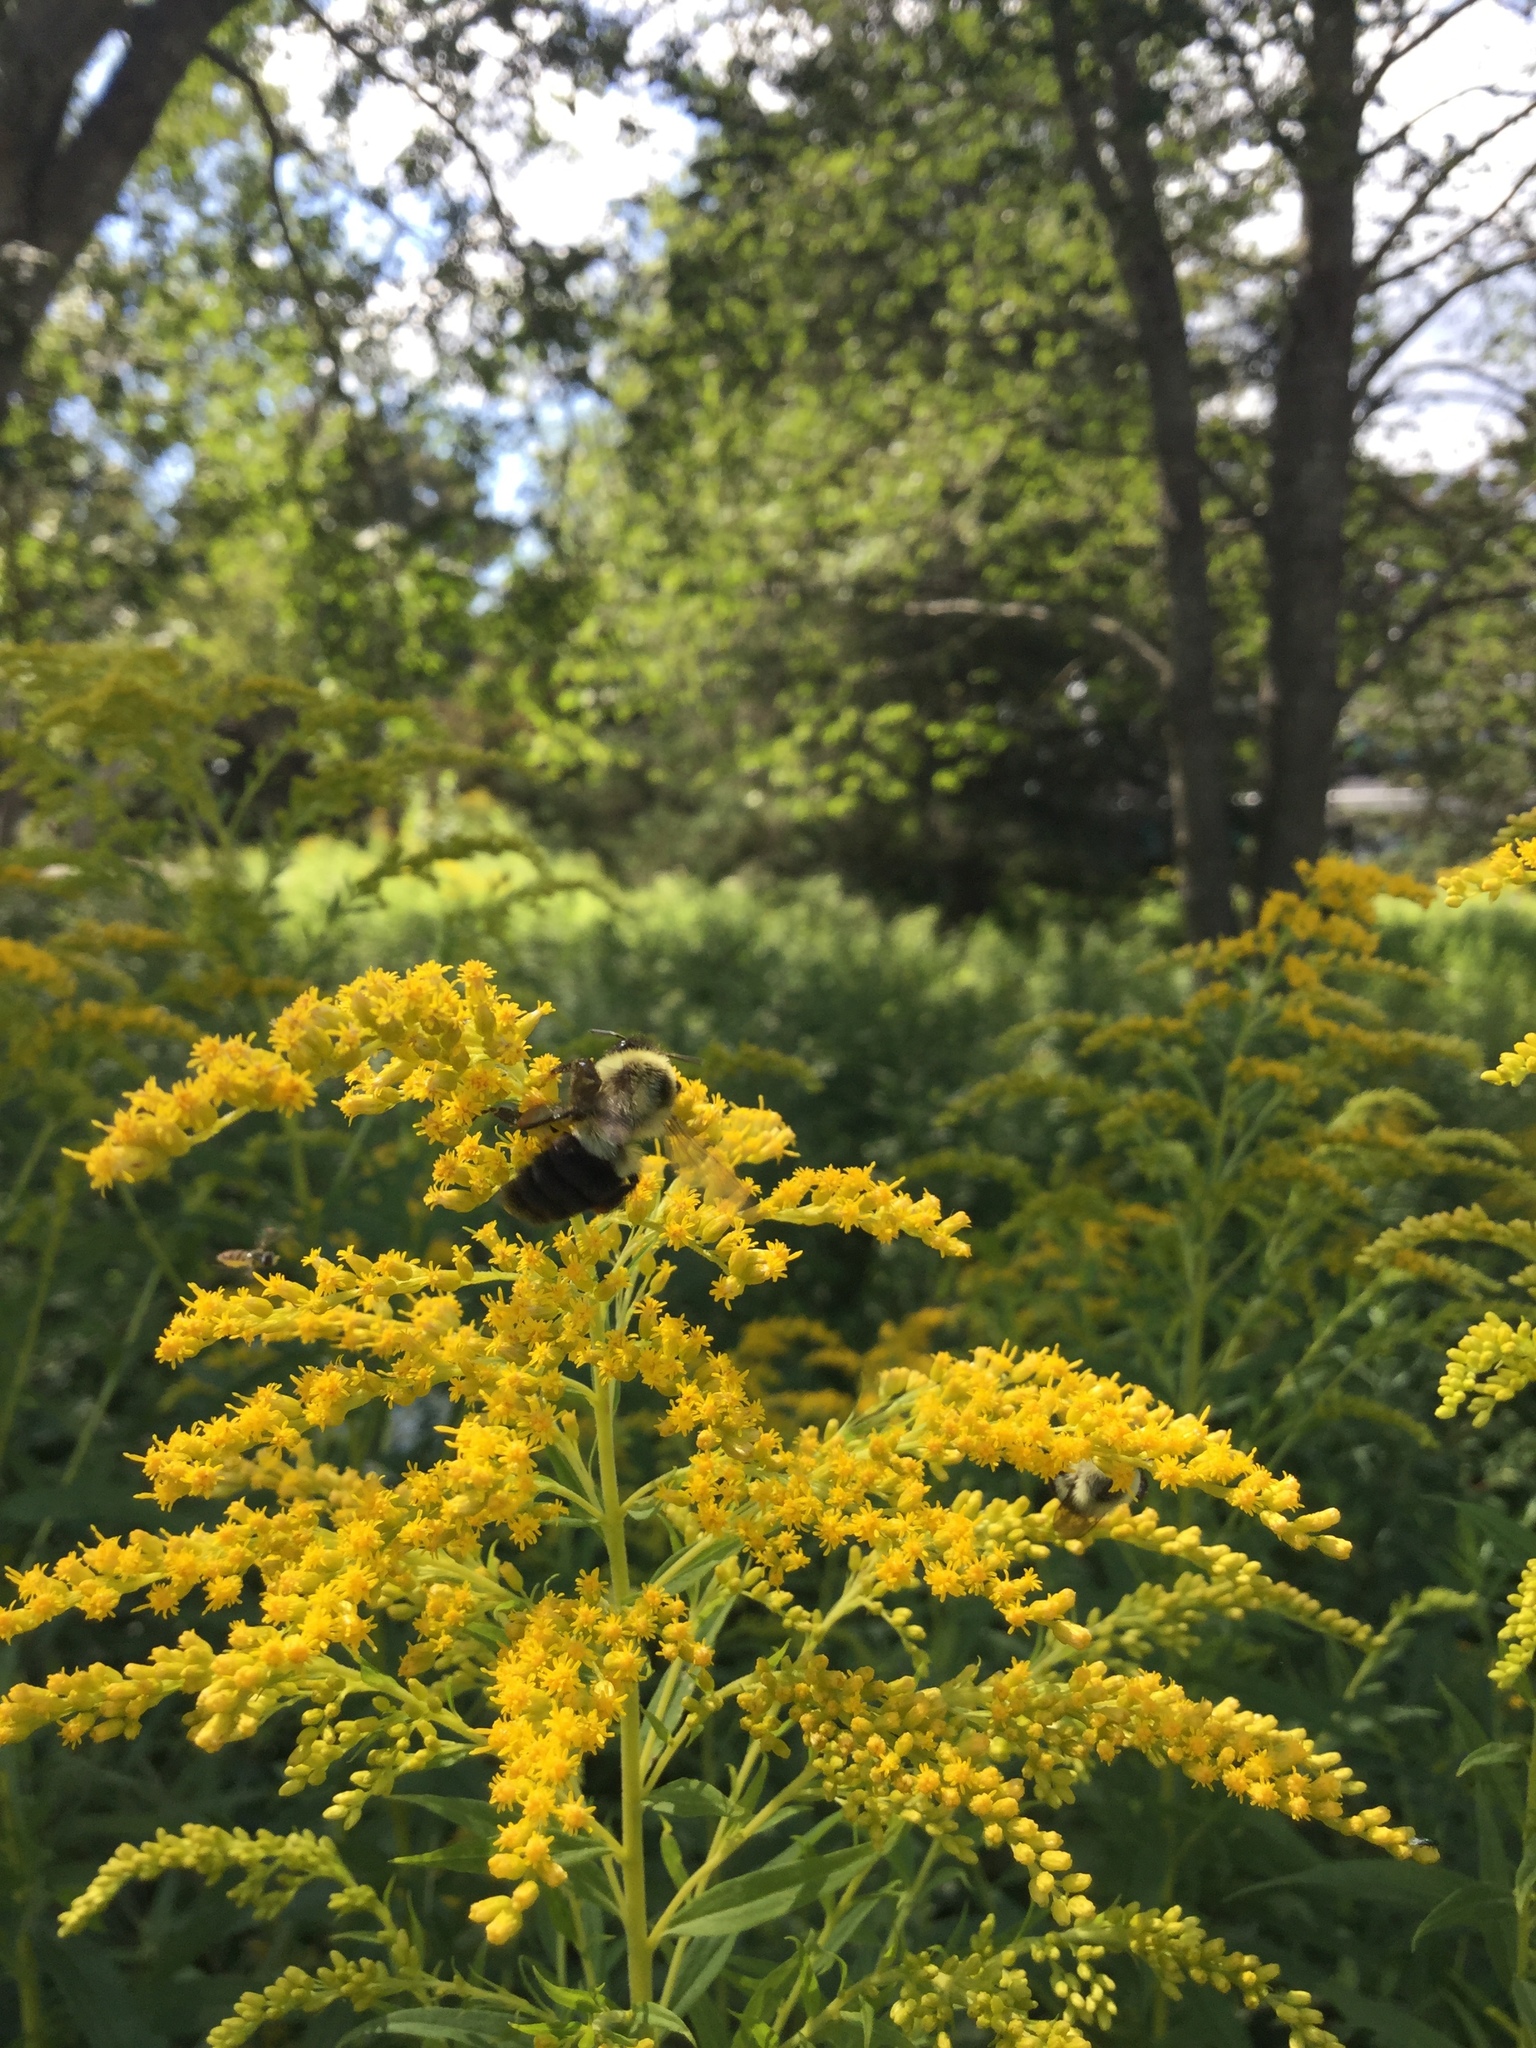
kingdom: Animalia
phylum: Arthropoda
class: Insecta
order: Hymenoptera
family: Apidae
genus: Bombus
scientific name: Bombus impatiens
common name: Common eastern bumble bee
